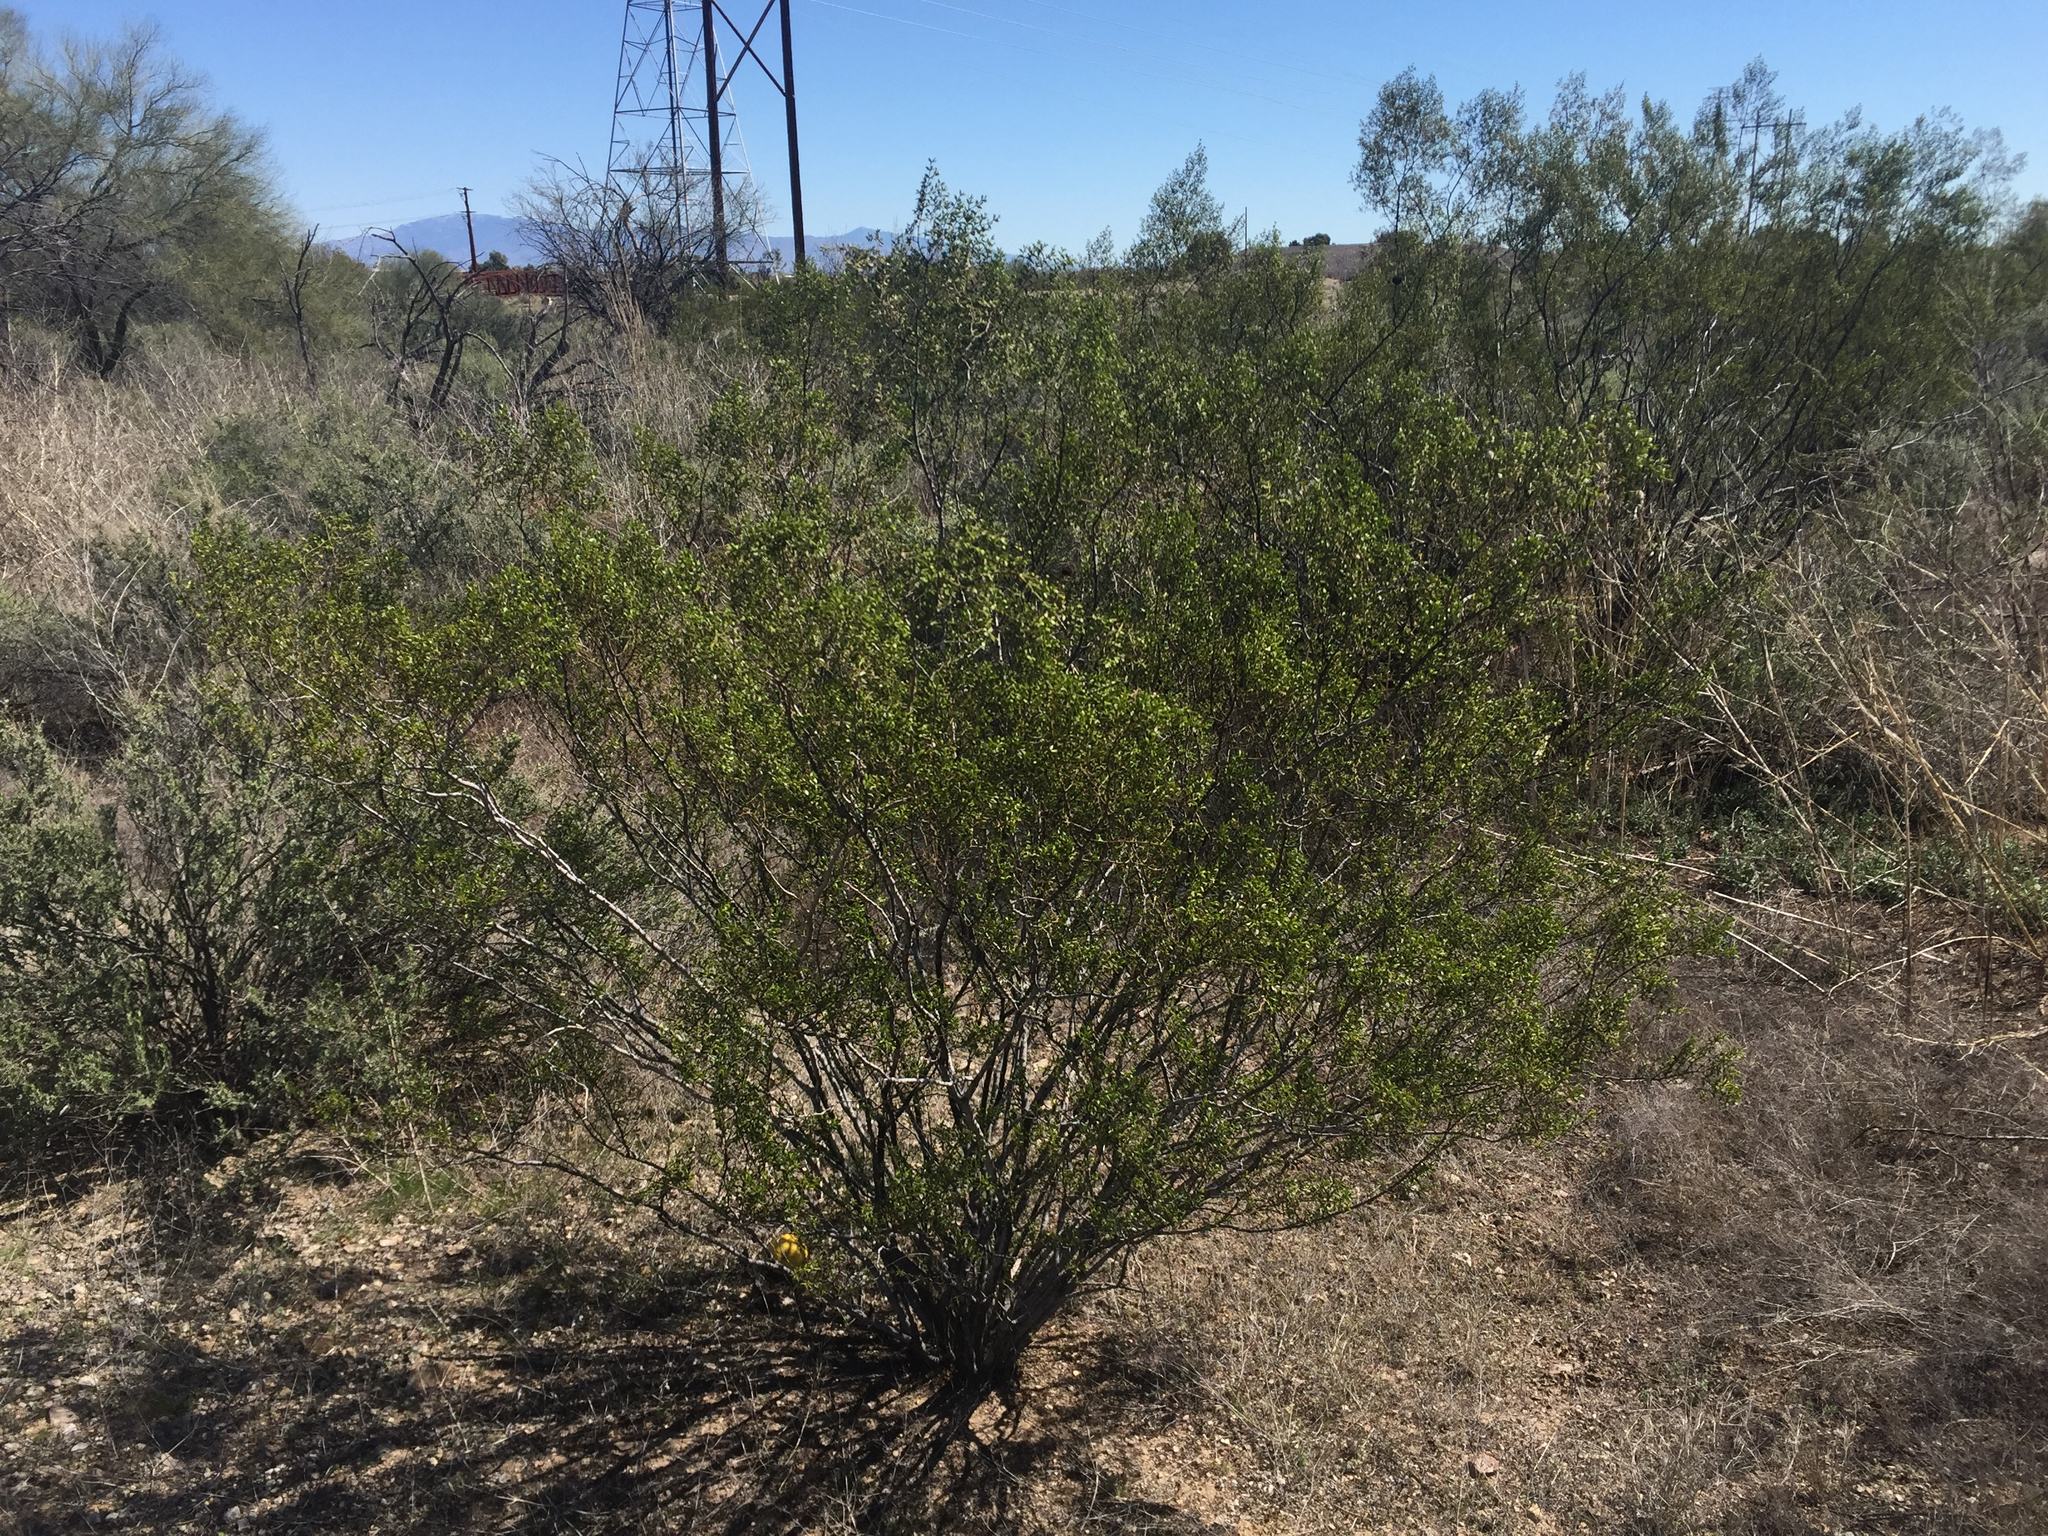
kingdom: Plantae
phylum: Tracheophyta
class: Magnoliopsida
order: Zygophyllales
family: Zygophyllaceae
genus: Larrea
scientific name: Larrea tridentata
